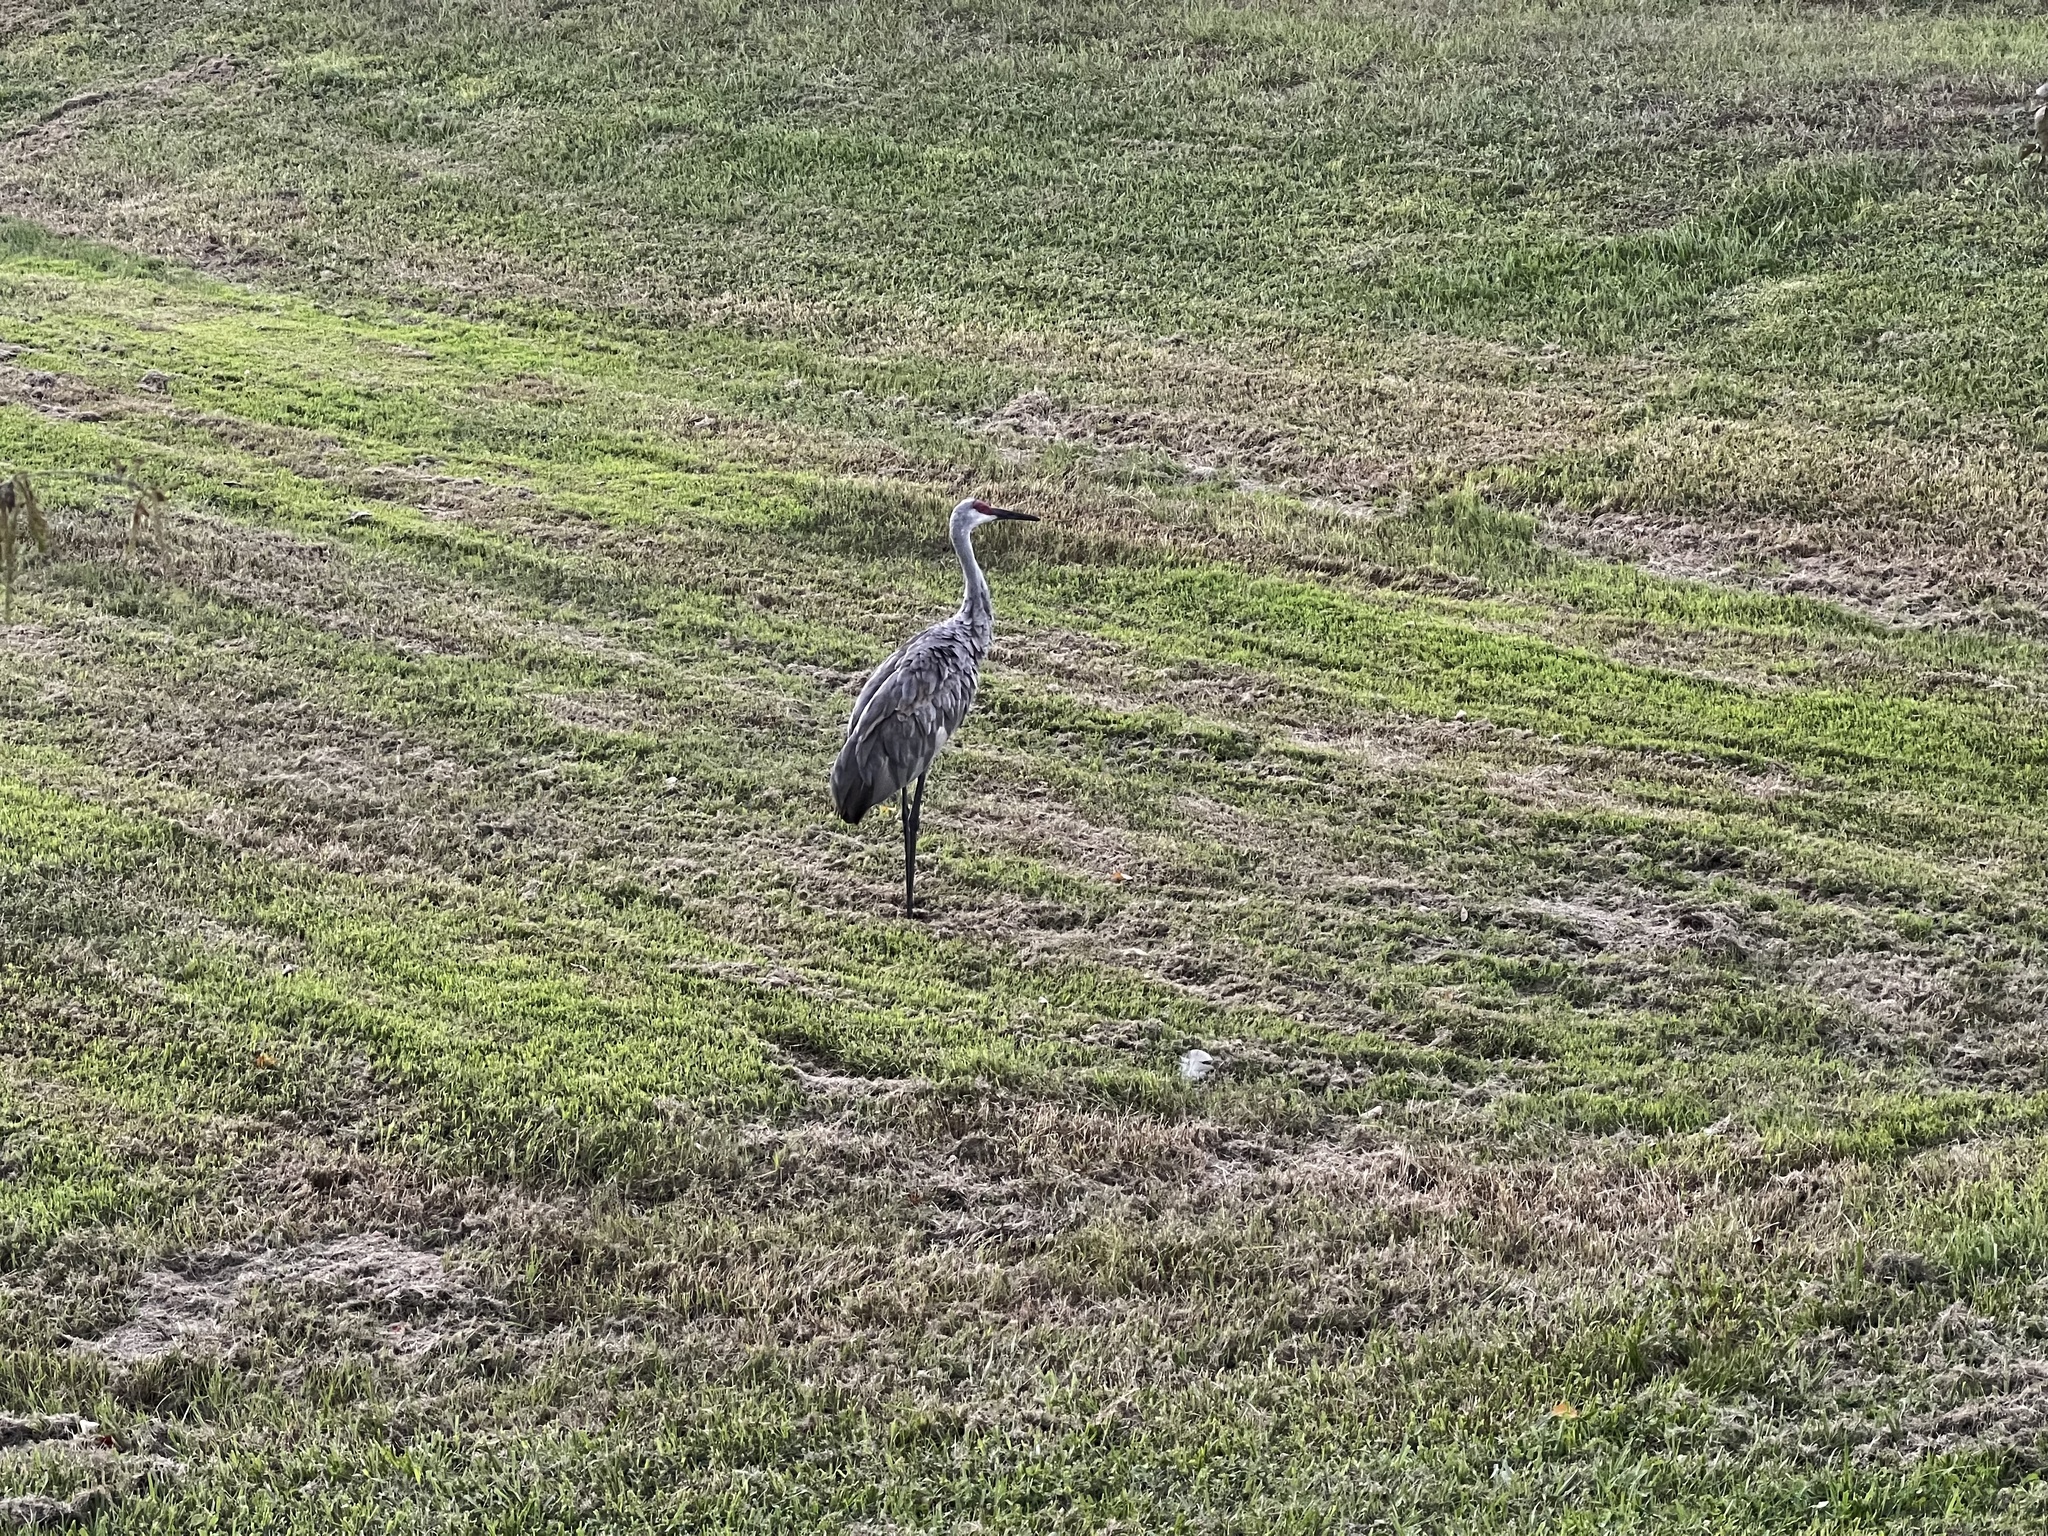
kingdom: Animalia
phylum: Chordata
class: Aves
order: Gruiformes
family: Gruidae
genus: Grus
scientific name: Grus canadensis
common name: Sandhill crane
